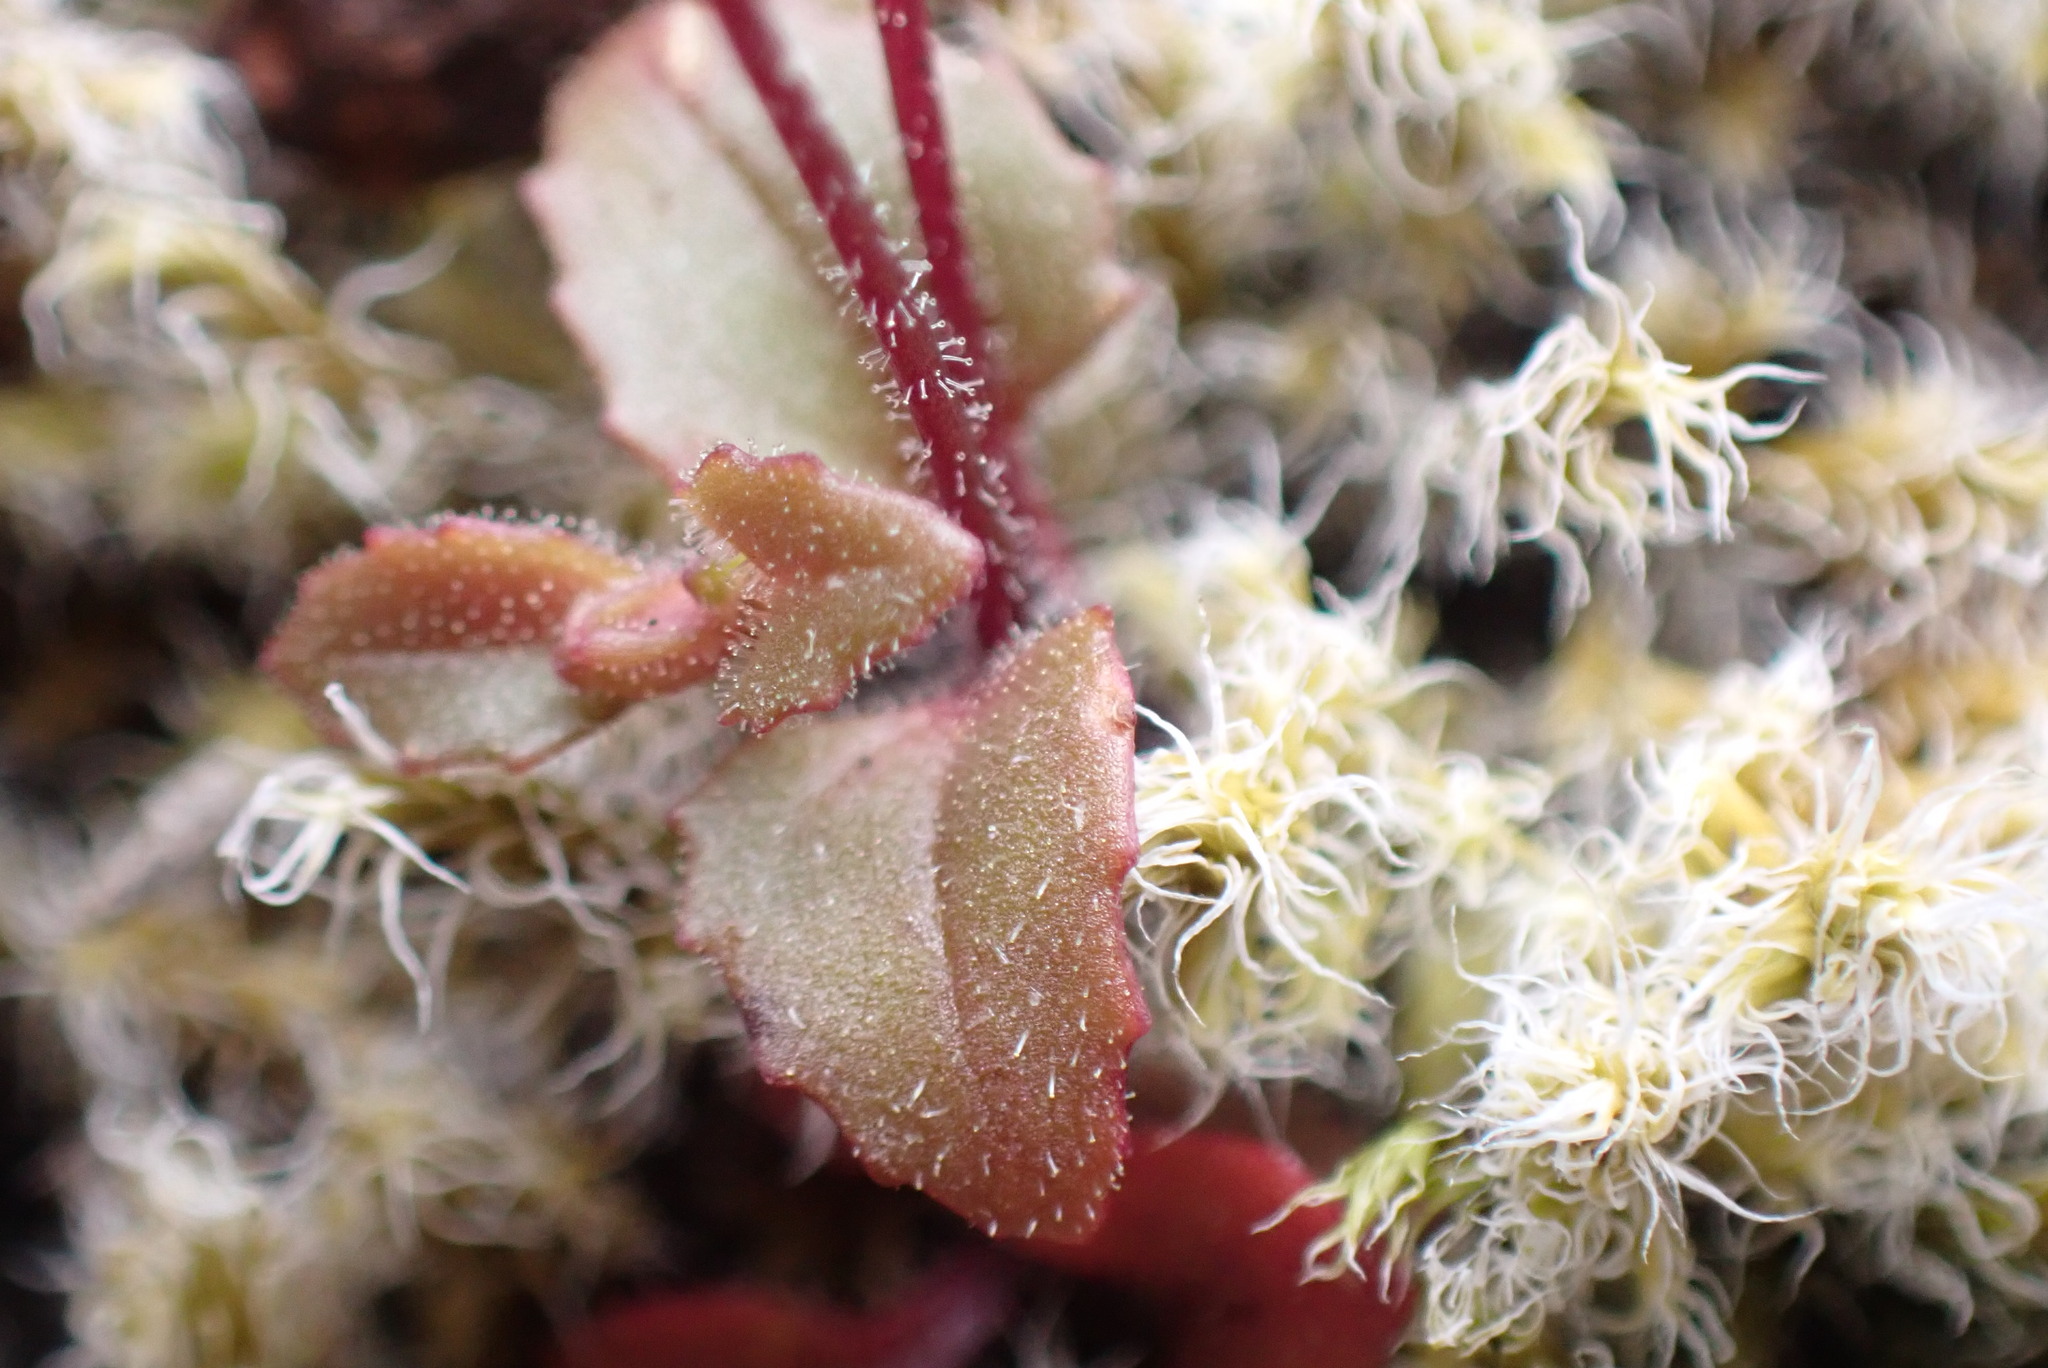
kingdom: Plantae
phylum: Tracheophyta
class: Magnoliopsida
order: Lamiales
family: Phrymaceae
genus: Erythranthe
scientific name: Erythranthe alsinoides
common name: Chickweed monkeyflower
